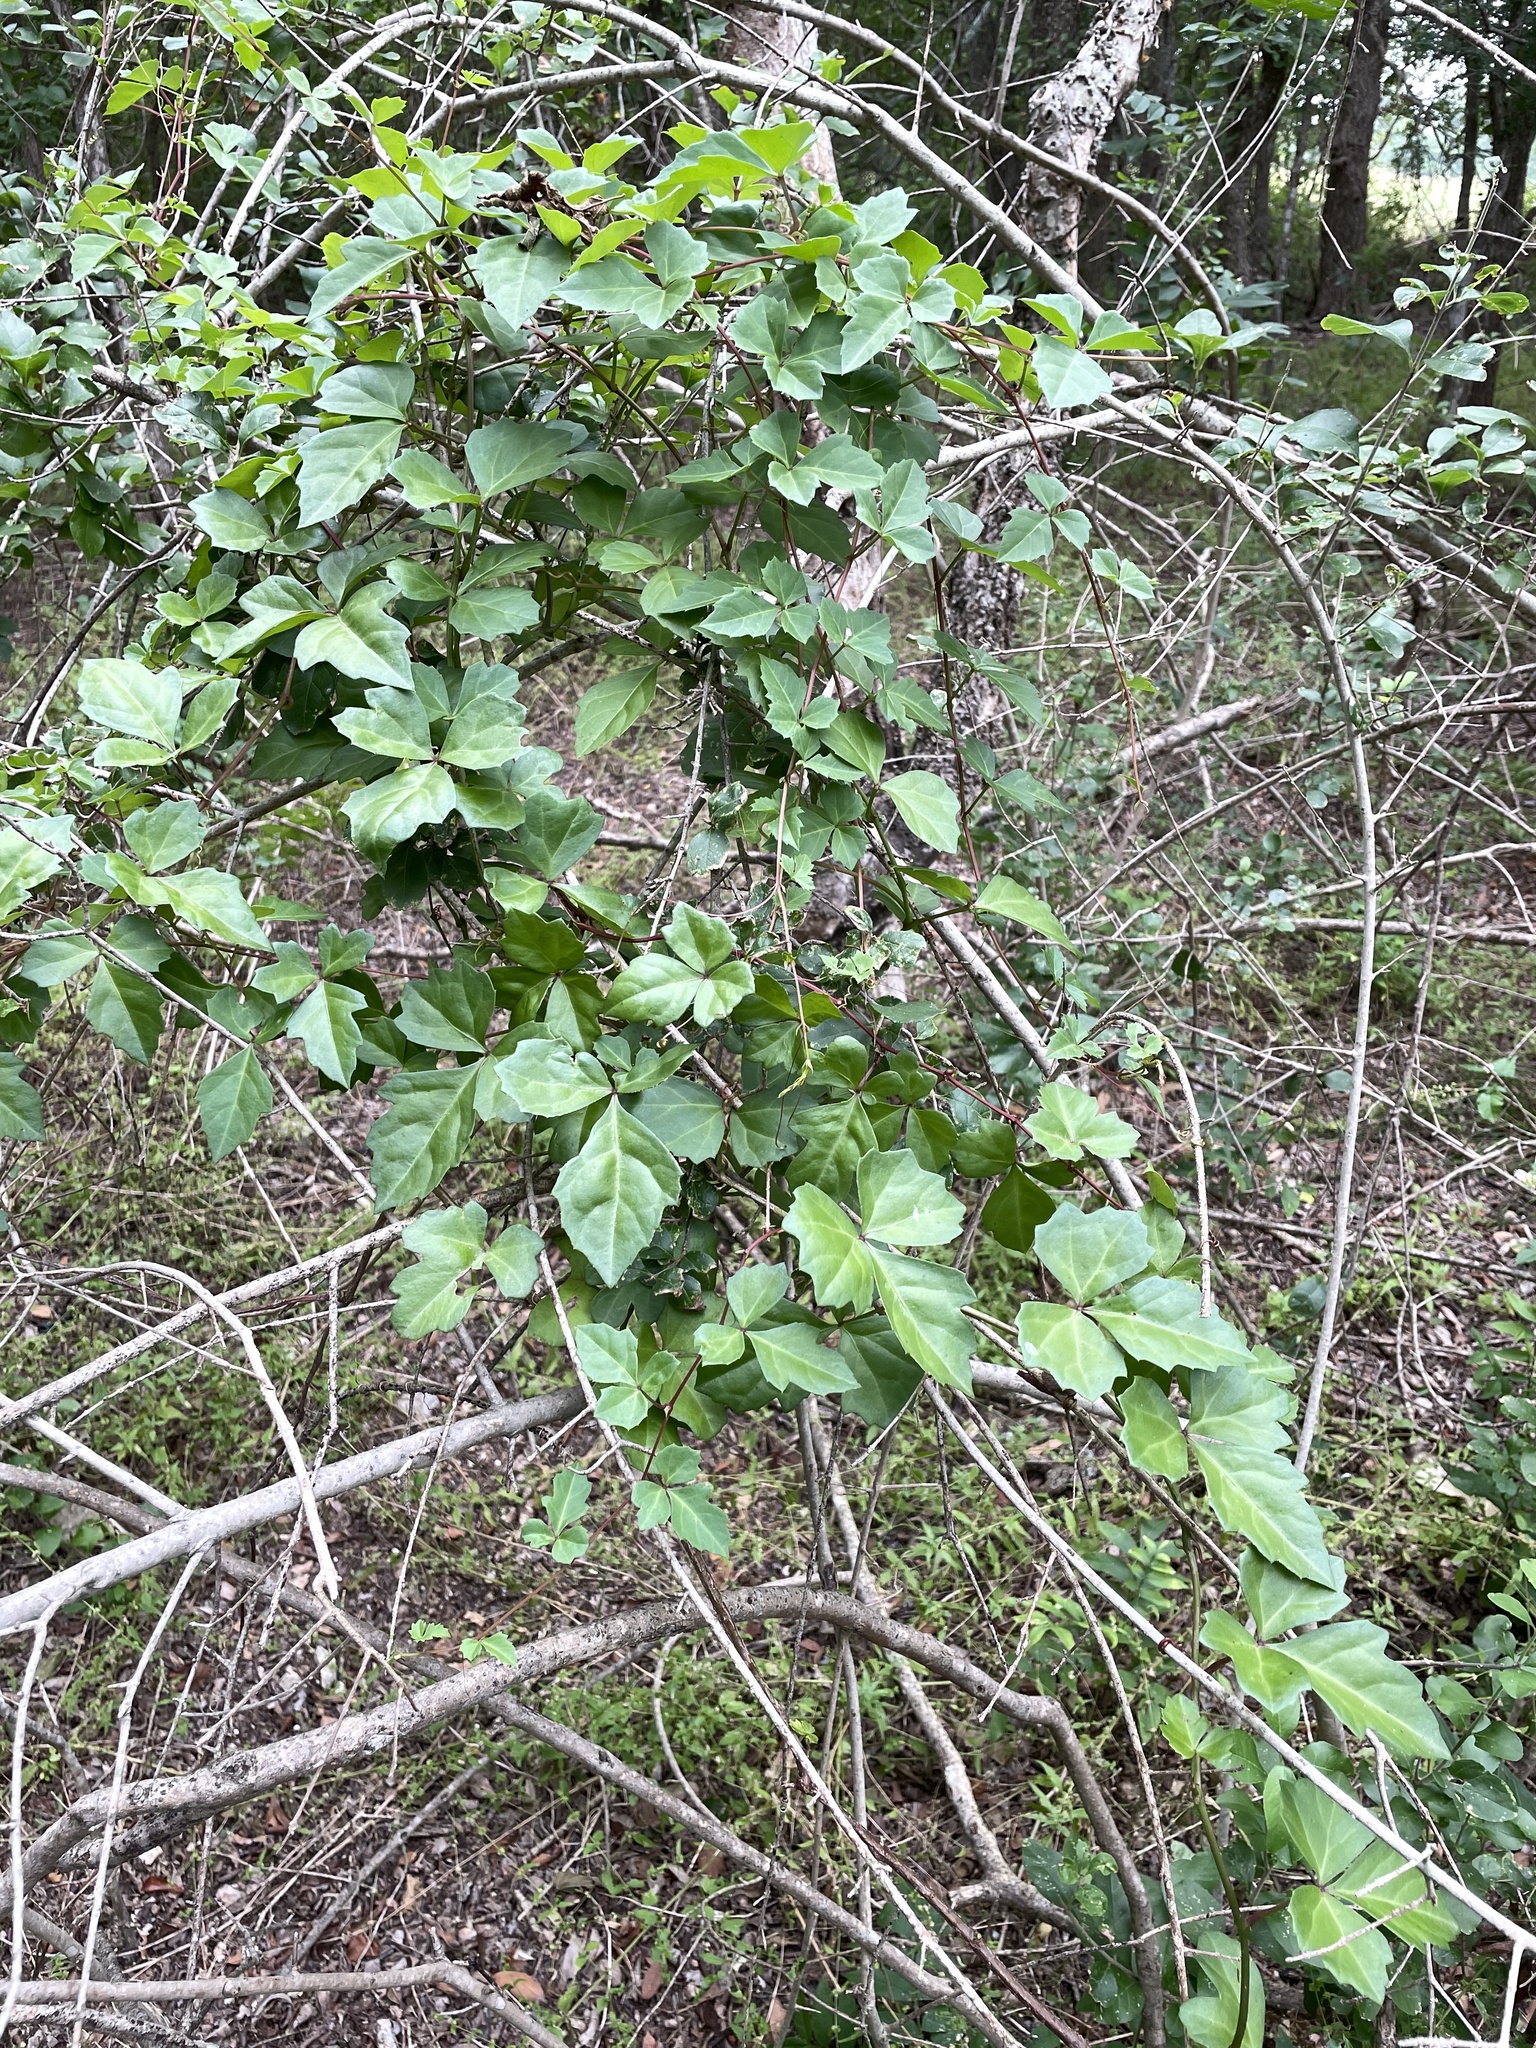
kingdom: Plantae
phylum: Tracheophyta
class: Magnoliopsida
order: Vitales
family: Vitaceae
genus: Cissus
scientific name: Cissus trifoliata
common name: Vine-sorrel
